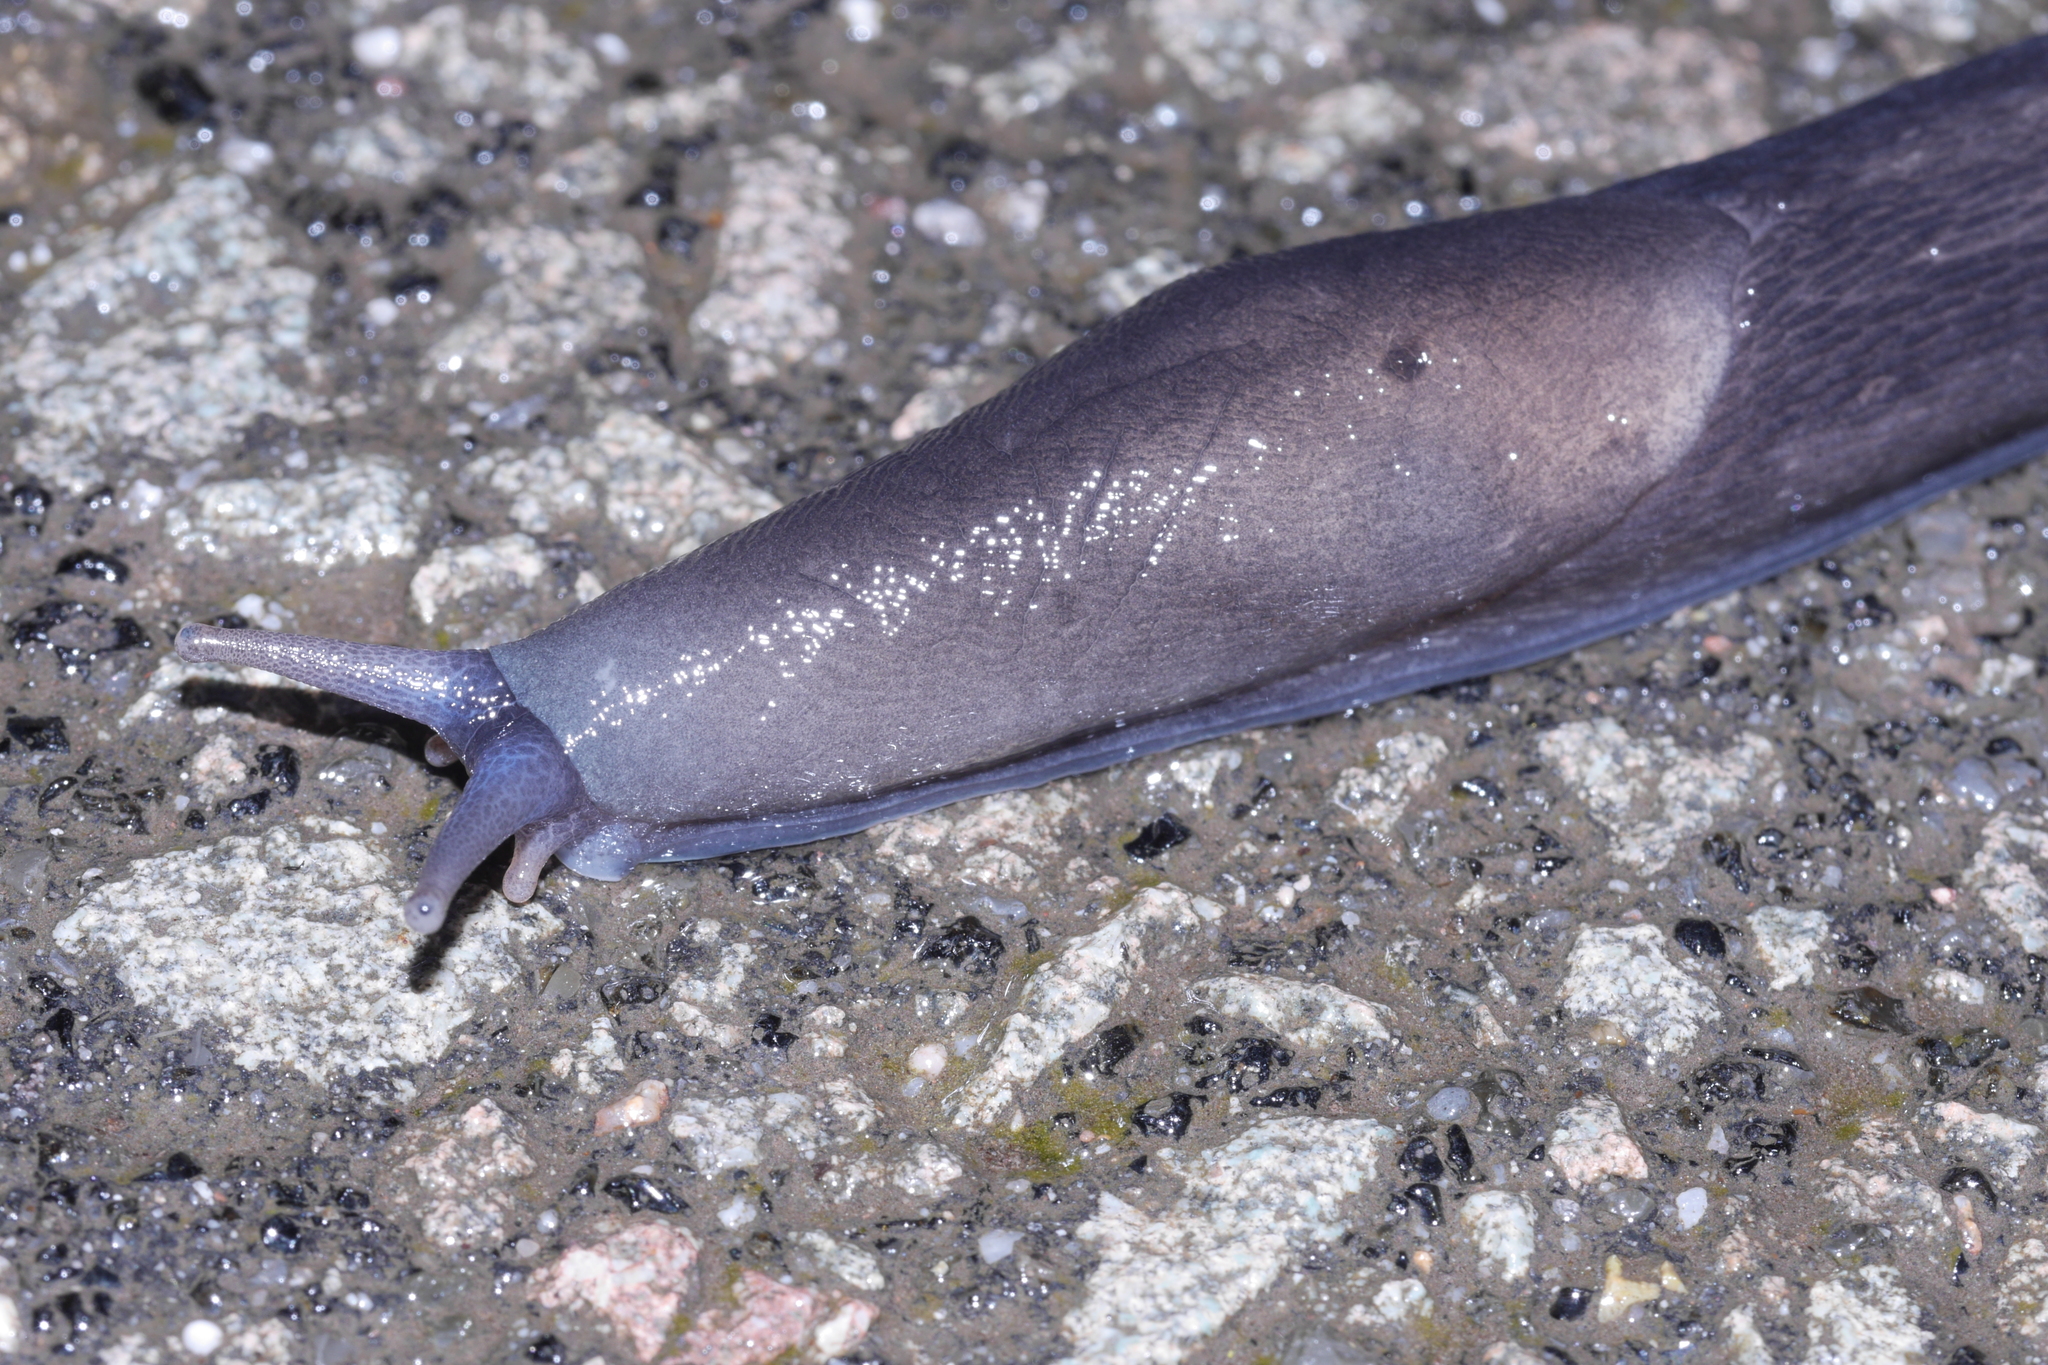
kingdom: Animalia
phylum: Mollusca
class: Gastropoda
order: Stylommatophora
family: Limacidae
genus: Limax
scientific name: Limax cinereoniger
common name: Ash-black slug
